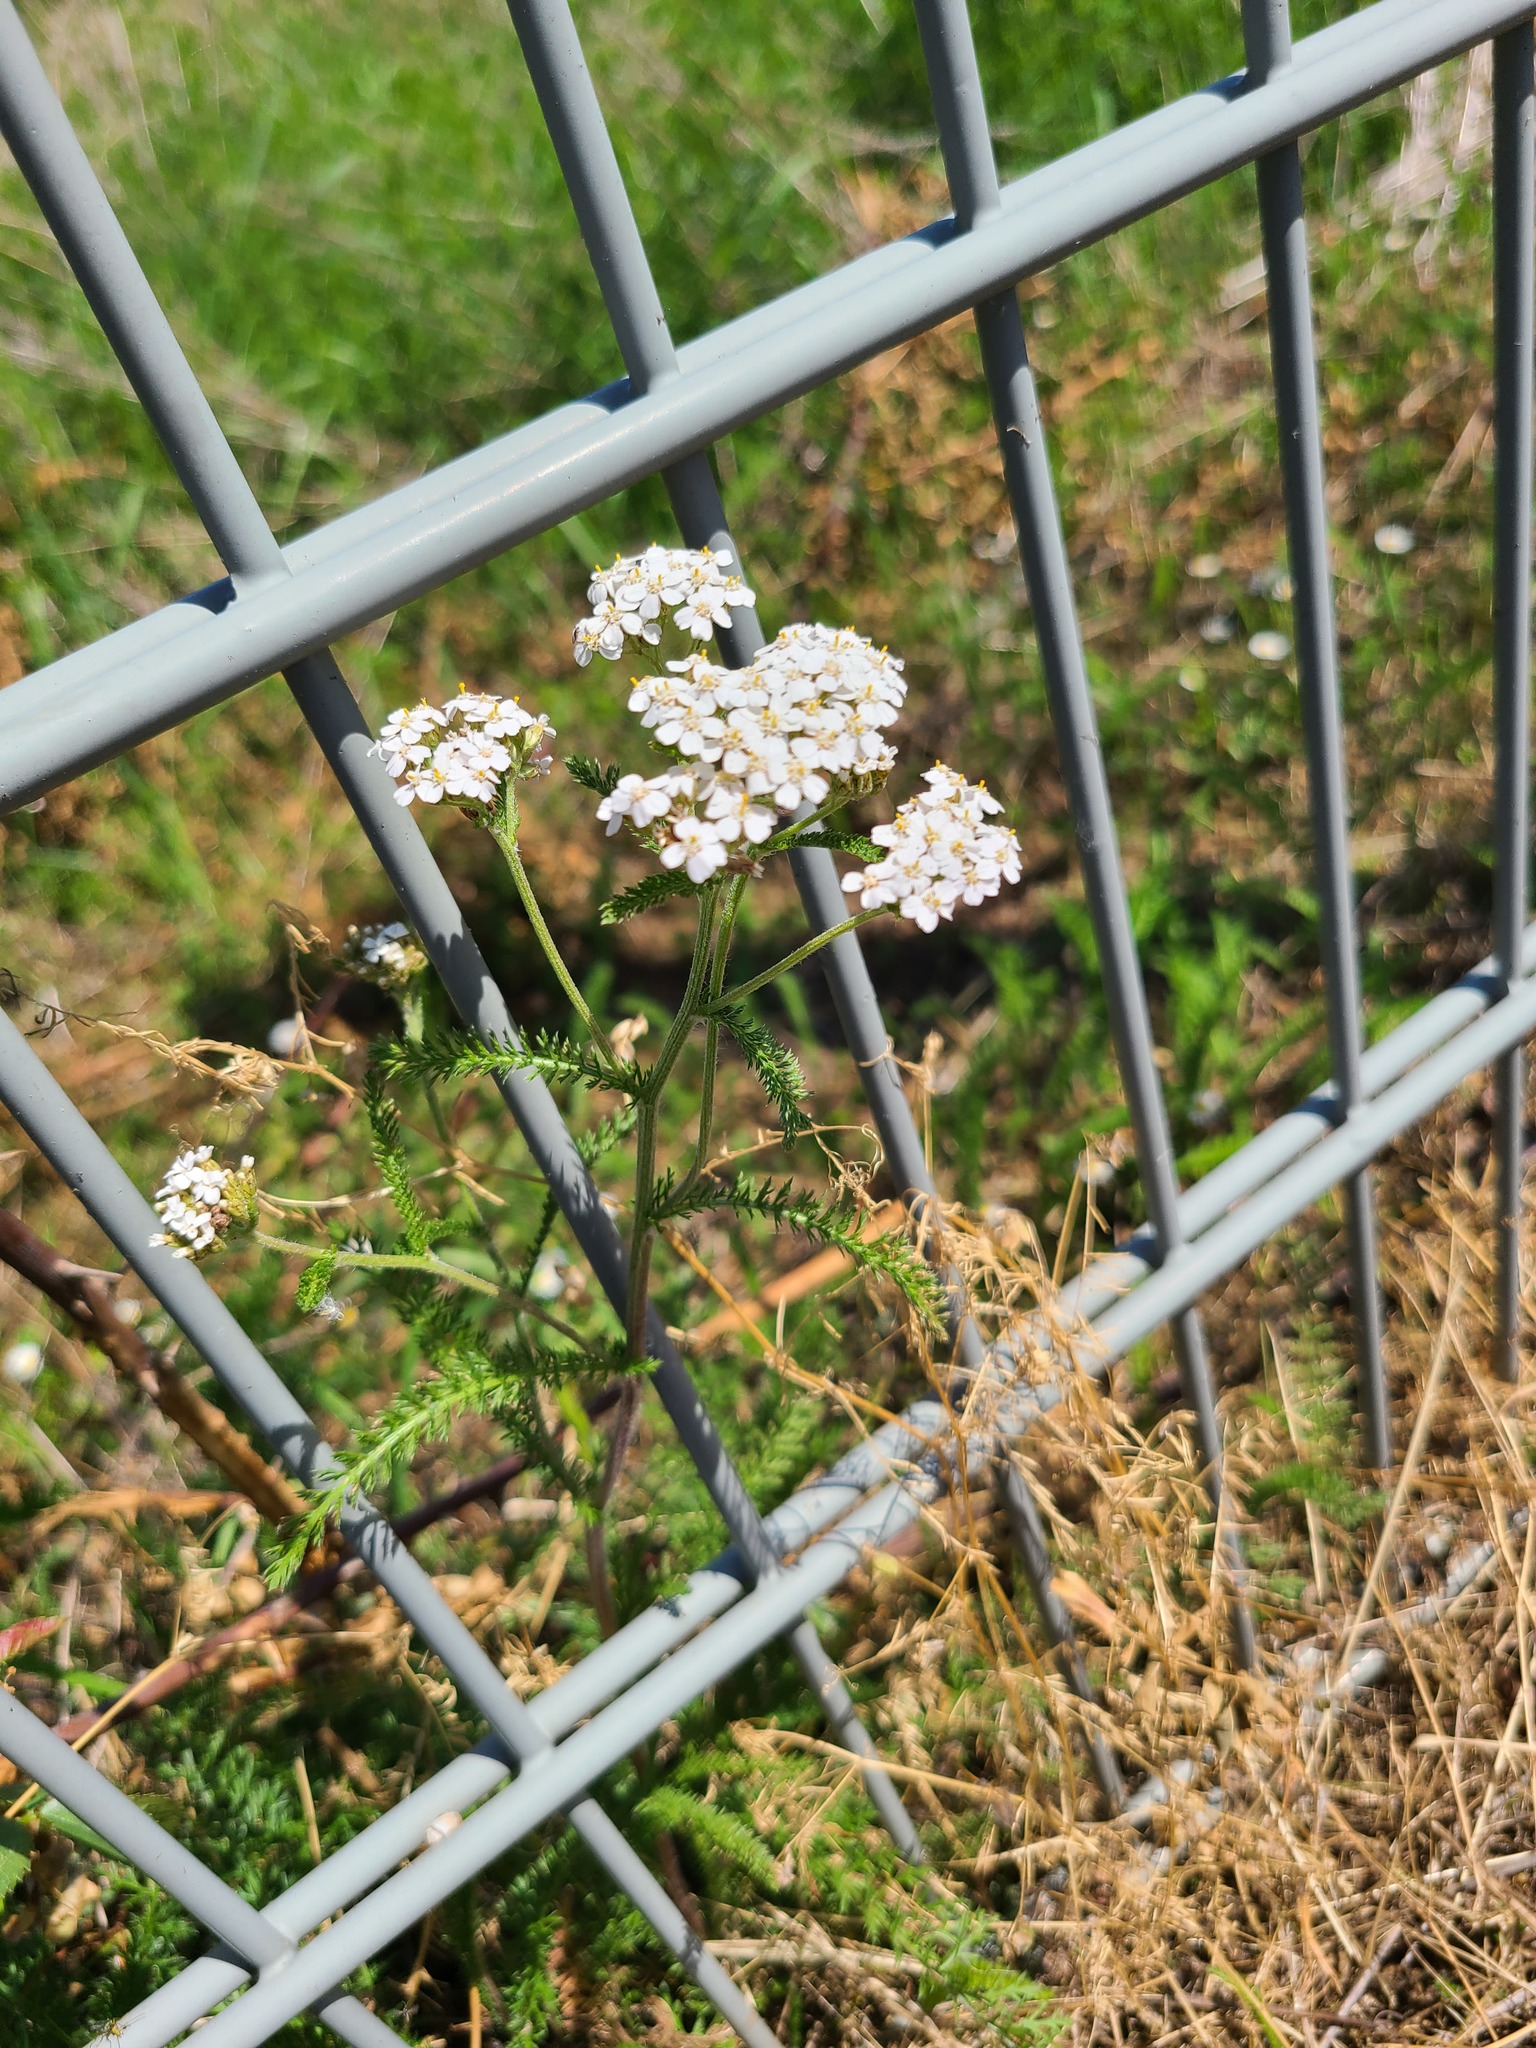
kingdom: Plantae
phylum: Tracheophyta
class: Magnoliopsida
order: Asterales
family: Asteraceae
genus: Achillea
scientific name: Achillea millefolium
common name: Yarrow
